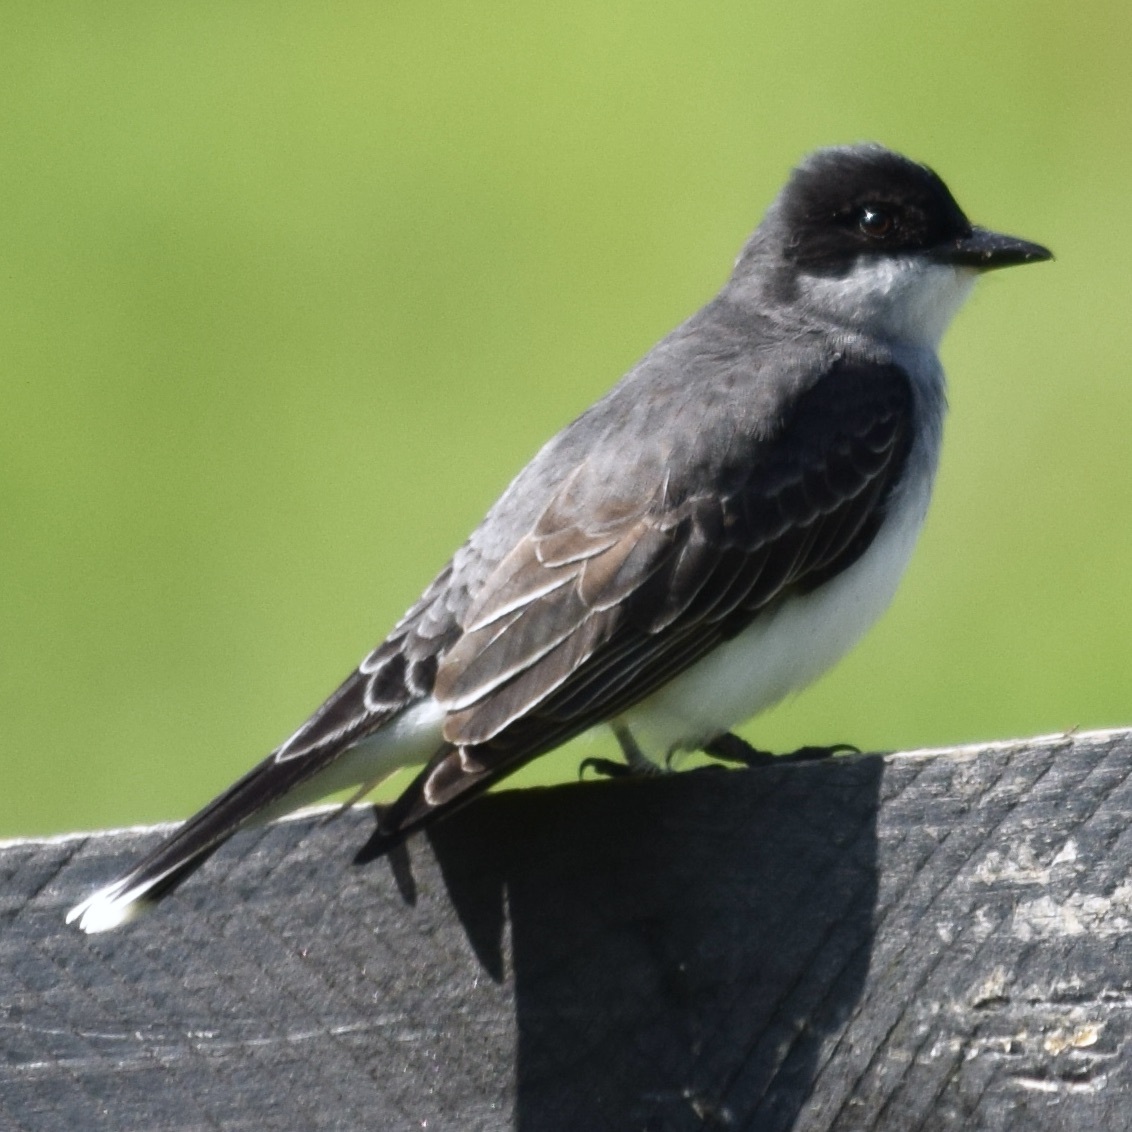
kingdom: Animalia
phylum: Chordata
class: Aves
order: Passeriformes
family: Tyrannidae
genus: Tyrannus
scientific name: Tyrannus tyrannus
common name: Eastern kingbird
